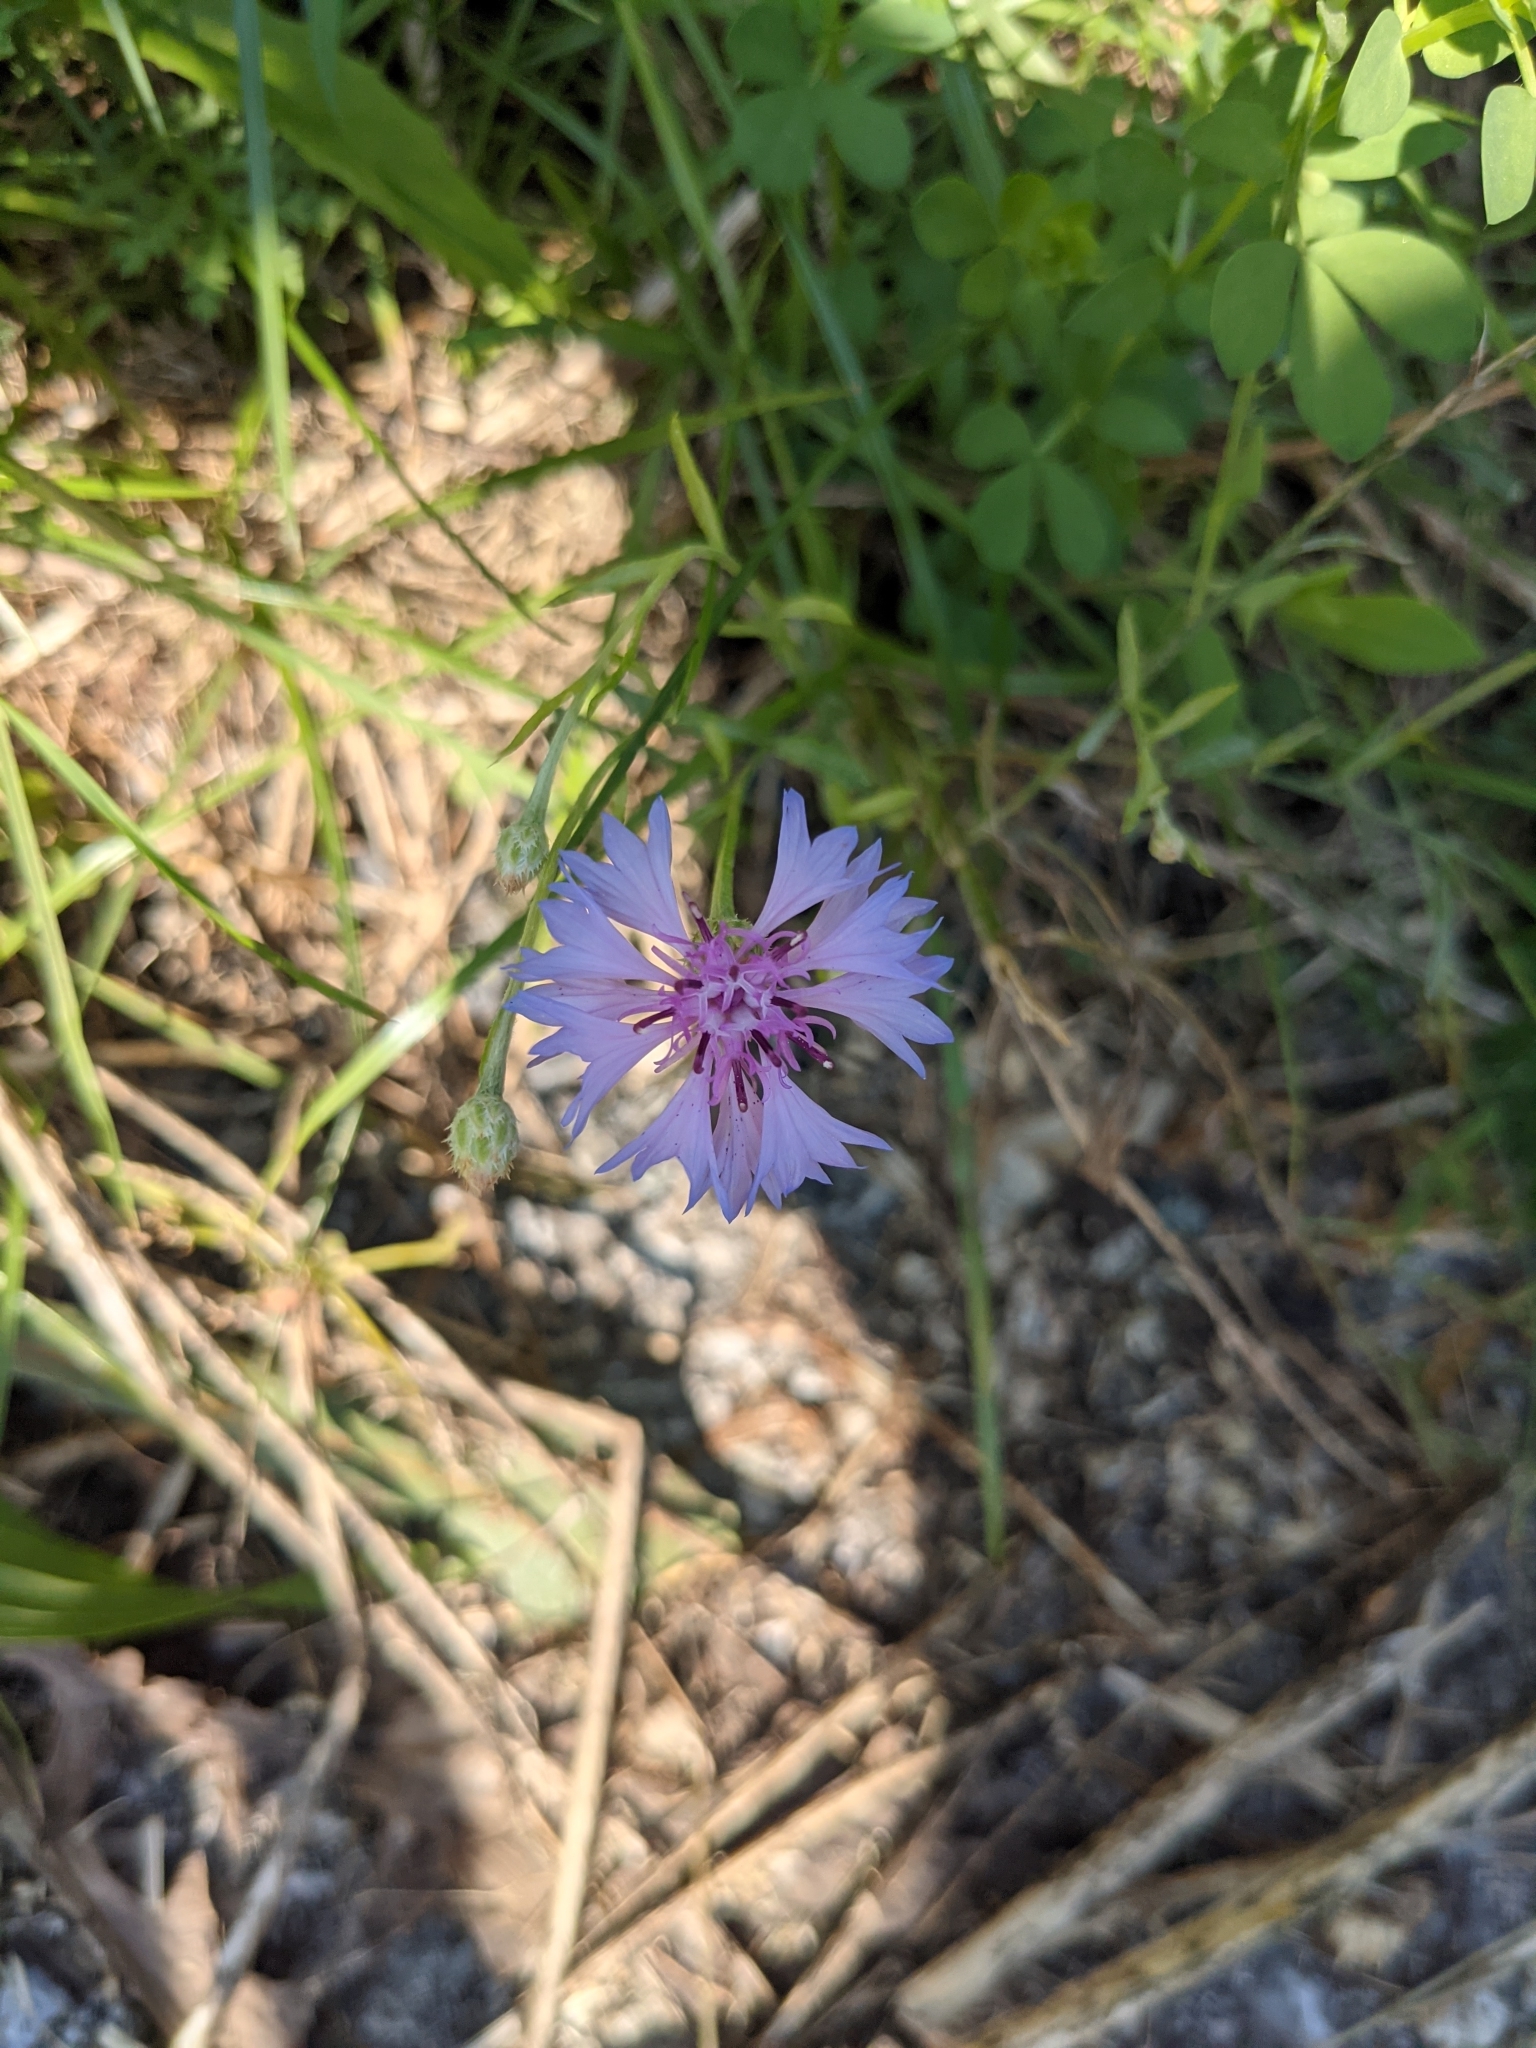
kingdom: Plantae
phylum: Tracheophyta
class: Magnoliopsida
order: Asterales
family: Asteraceae
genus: Centaurea
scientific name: Centaurea cyanus
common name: Cornflower
